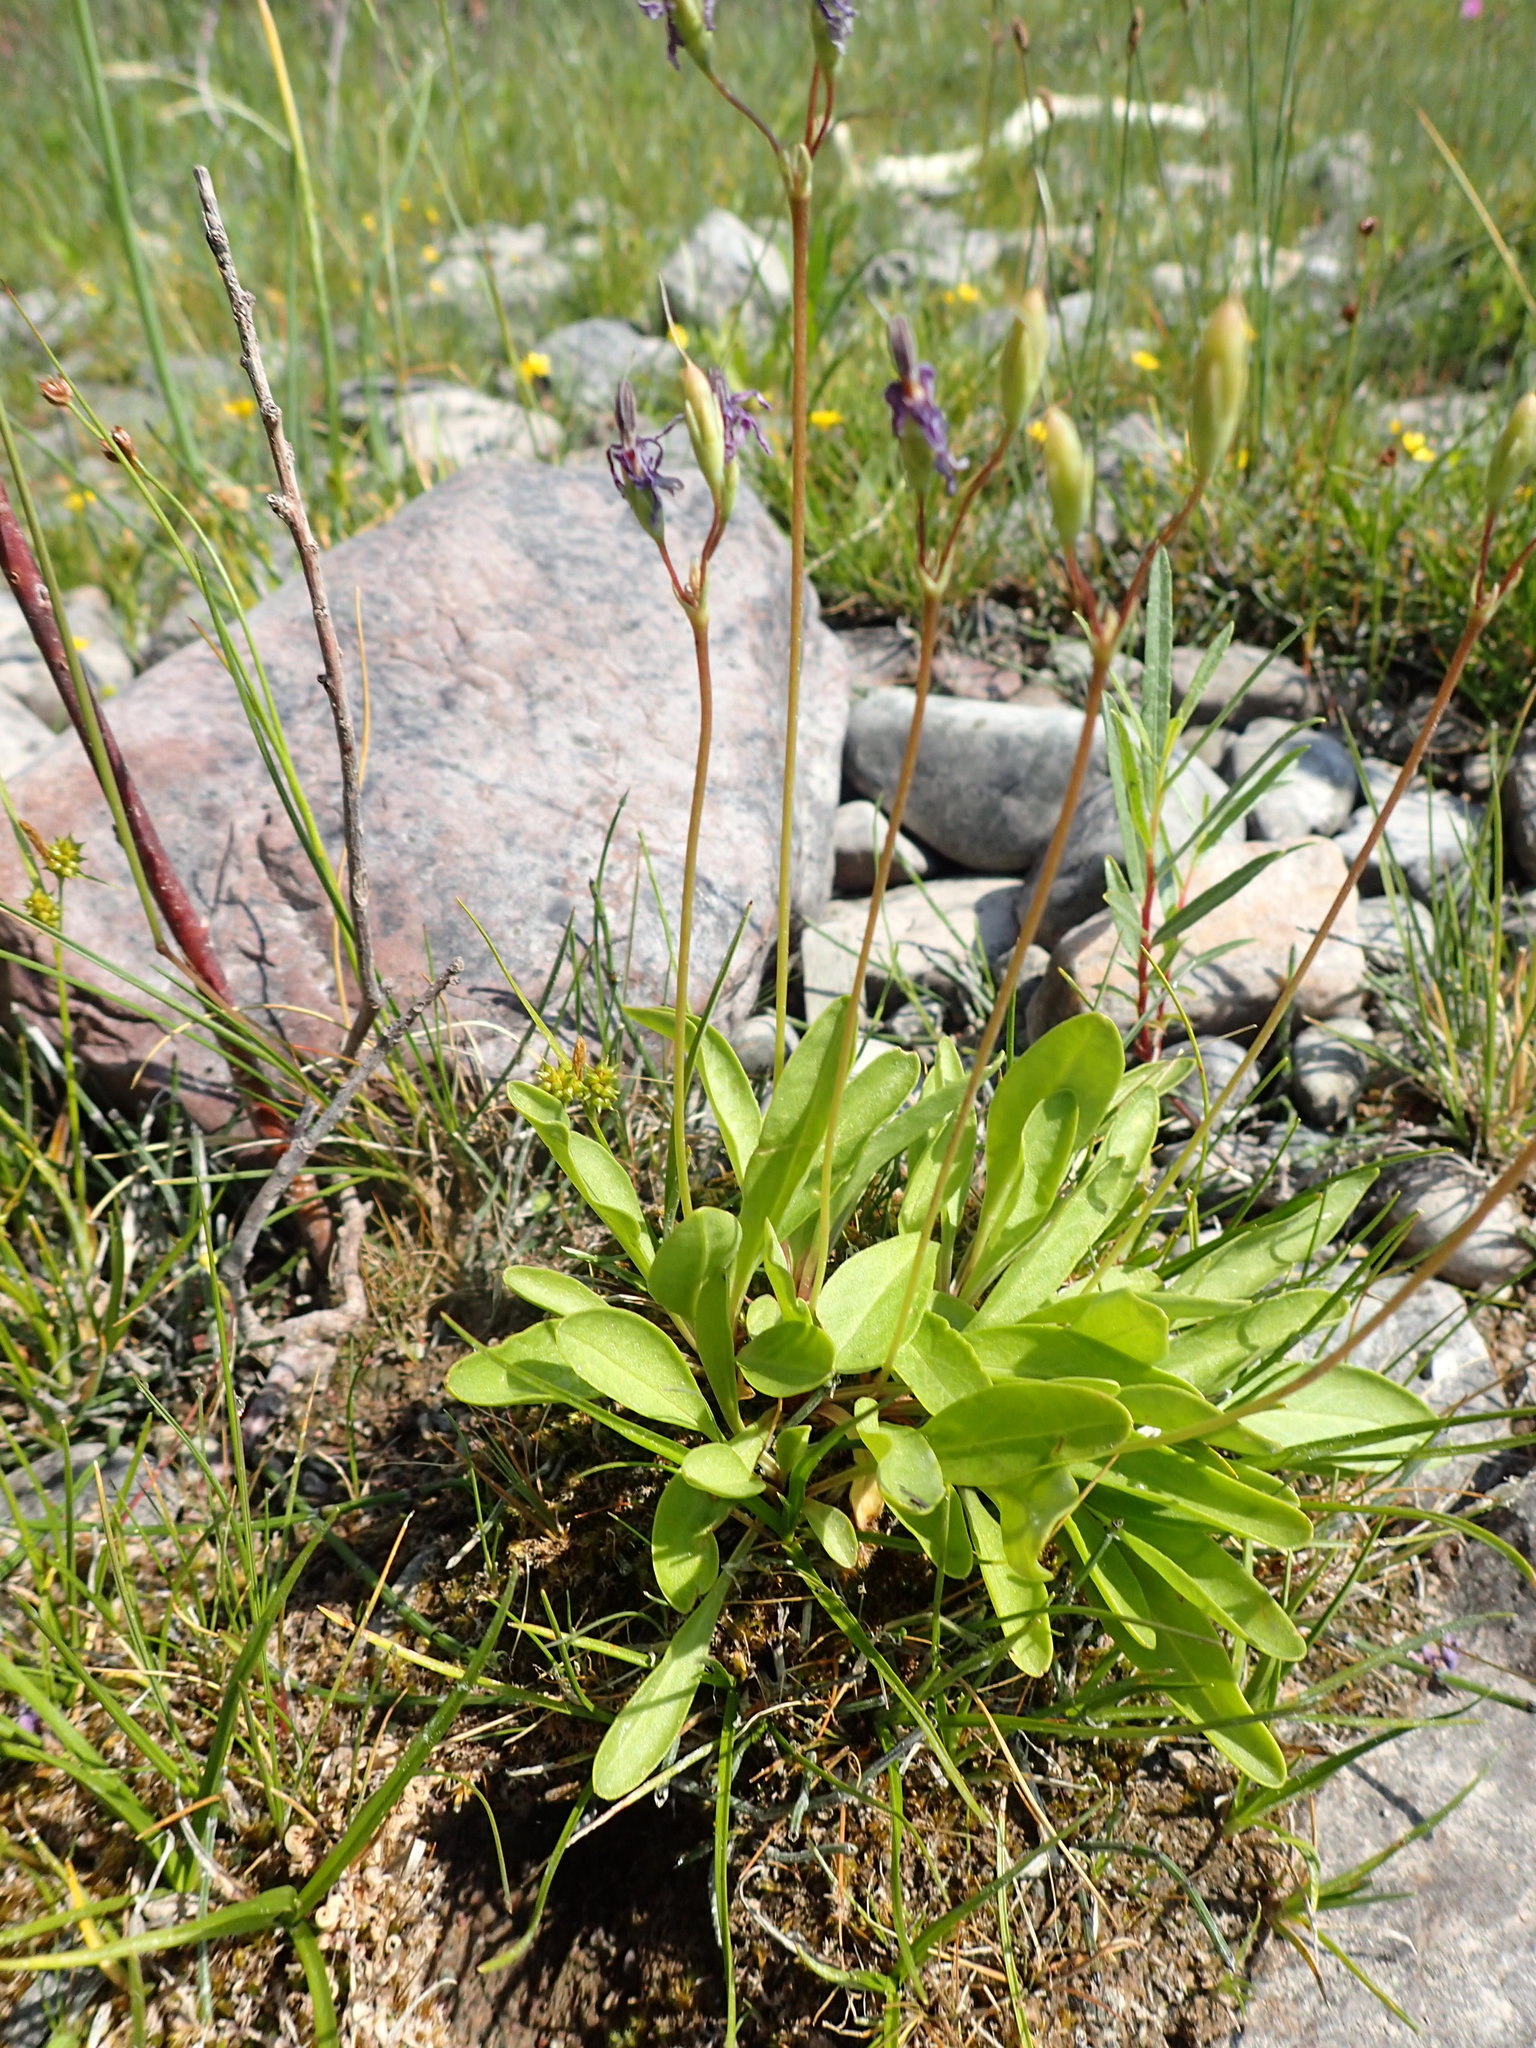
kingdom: Plantae
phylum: Tracheophyta
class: Magnoliopsida
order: Ericales
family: Primulaceae
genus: Dodecatheon
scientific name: Dodecatheon pulchellum
